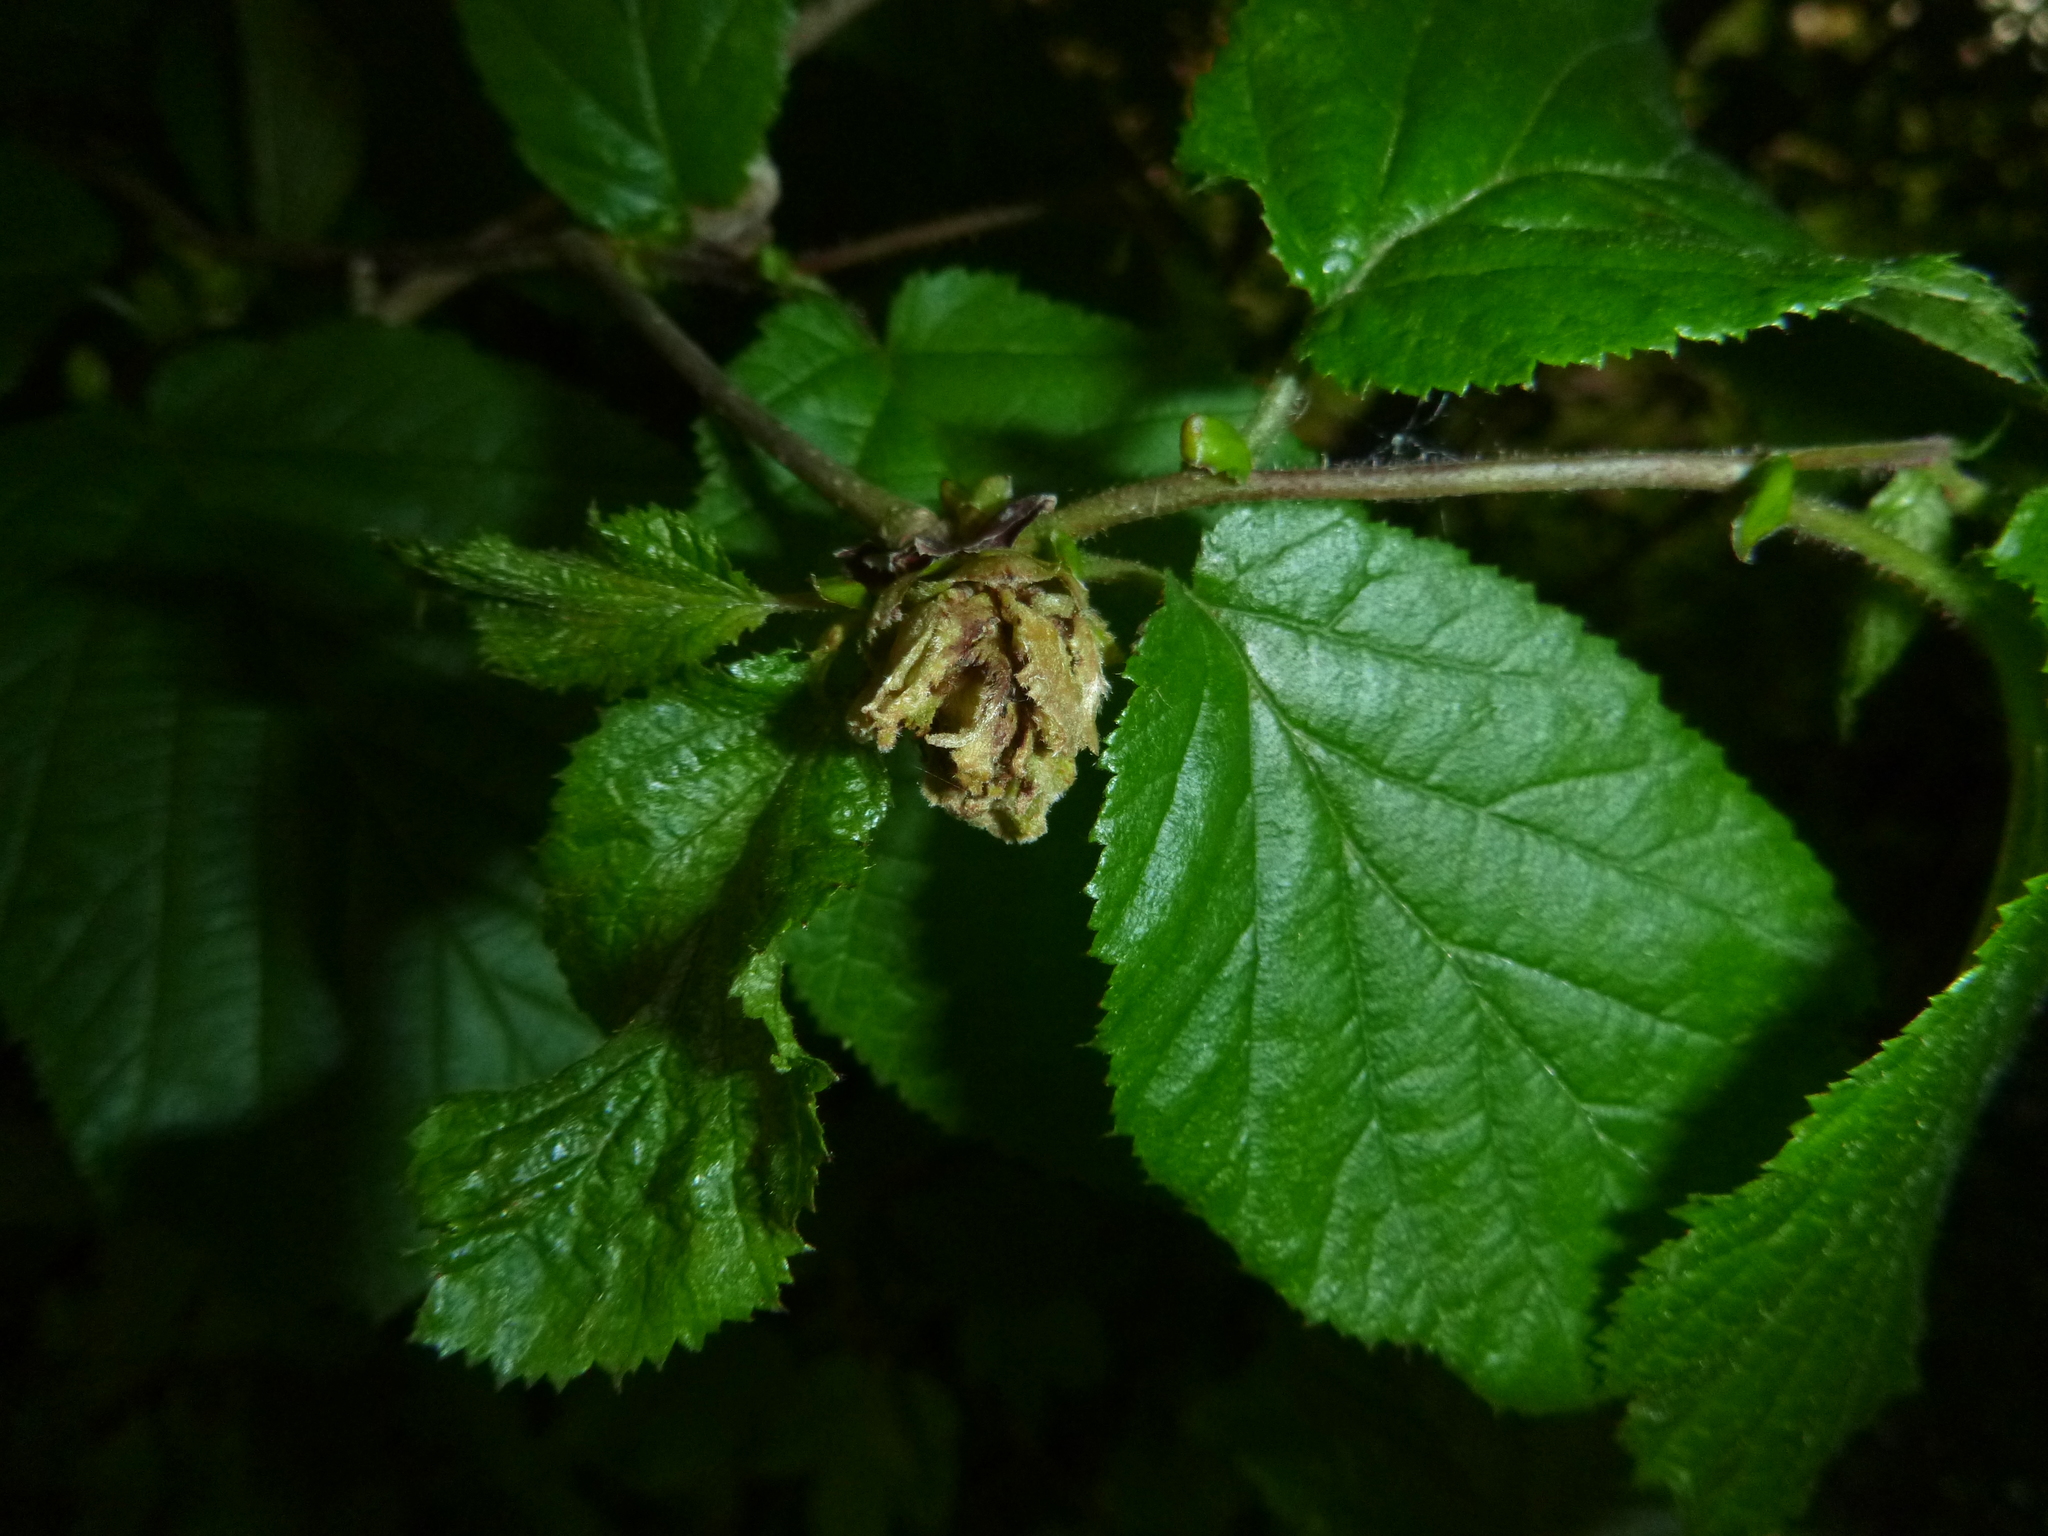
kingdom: Animalia
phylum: Arthropoda
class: Arachnida
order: Trombidiformes
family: Phytoptidae
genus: Phytoptus
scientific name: Phytoptus avellanae
